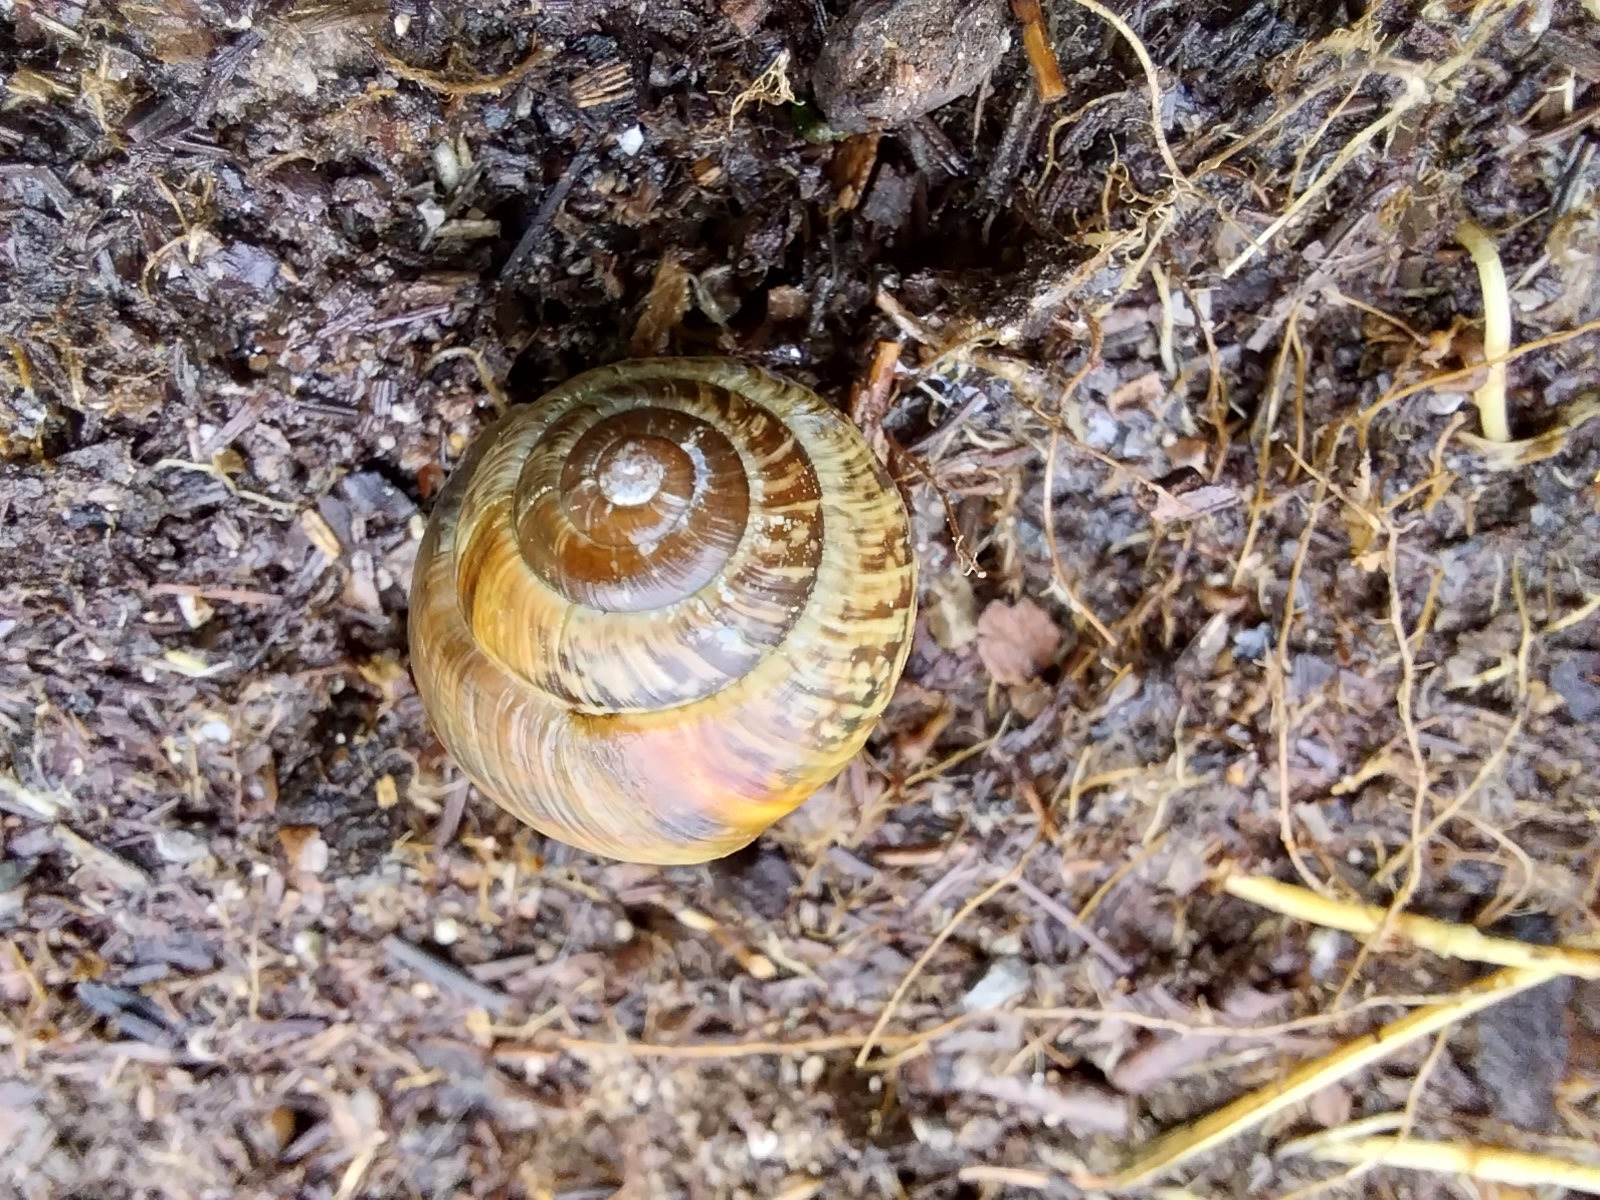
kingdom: Animalia
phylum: Mollusca
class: Gastropoda
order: Stylommatophora
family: Helicidae
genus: Arianta
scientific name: Arianta arbustorum
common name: Copse snail
